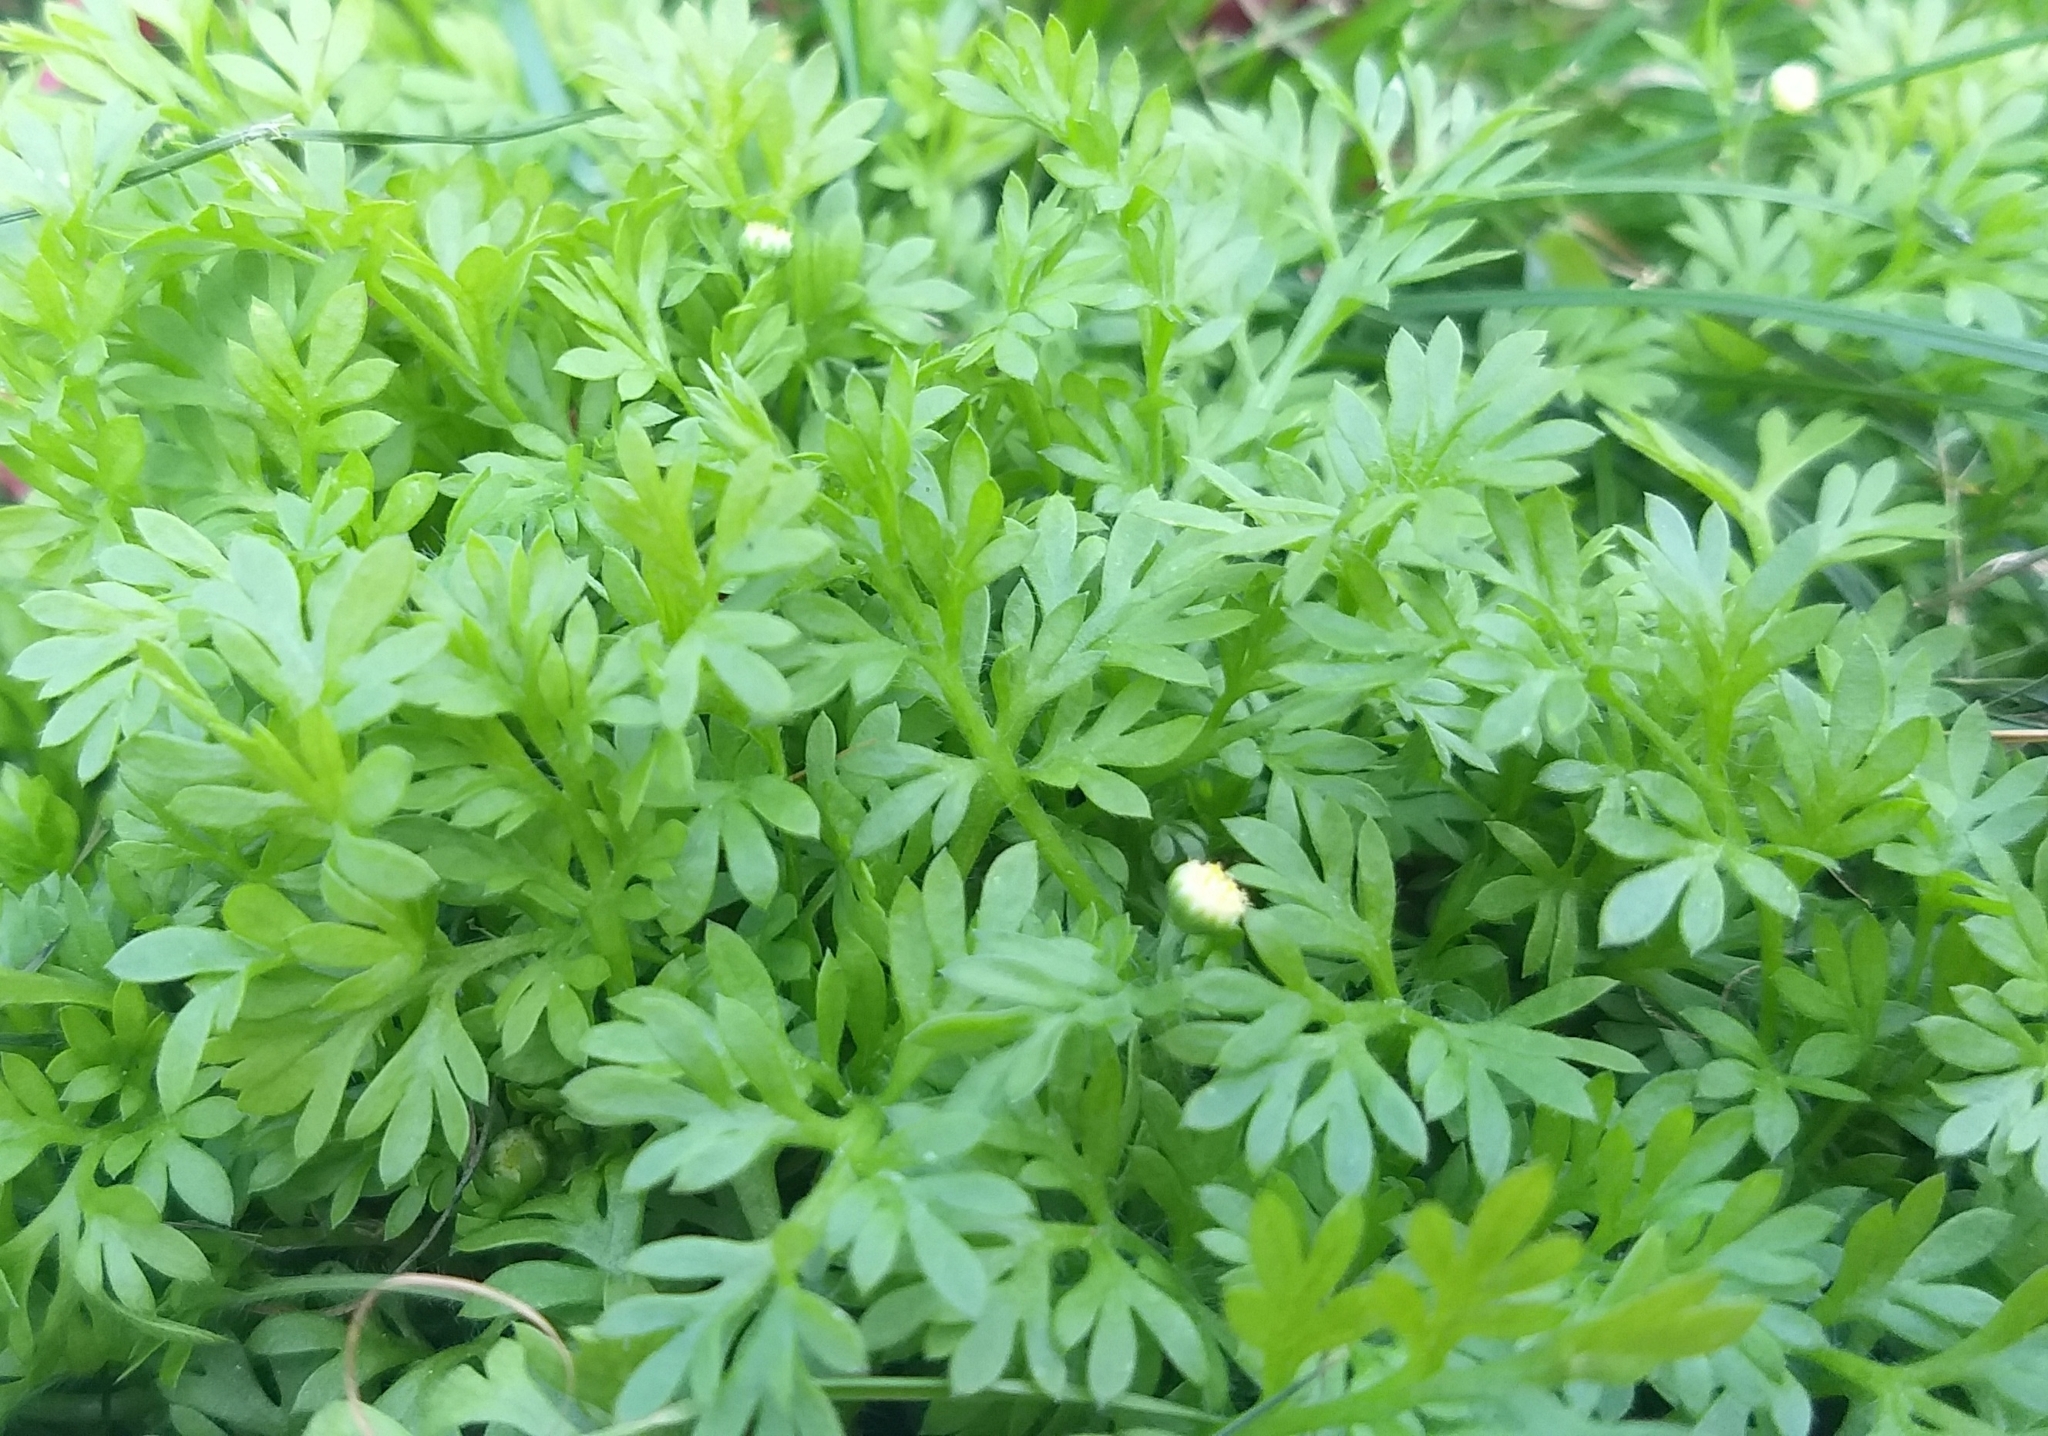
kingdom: Plantae
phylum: Tracheophyta
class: Magnoliopsida
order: Asterales
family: Asteraceae
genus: Cotula
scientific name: Cotula australis
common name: Australian waterbuttons
